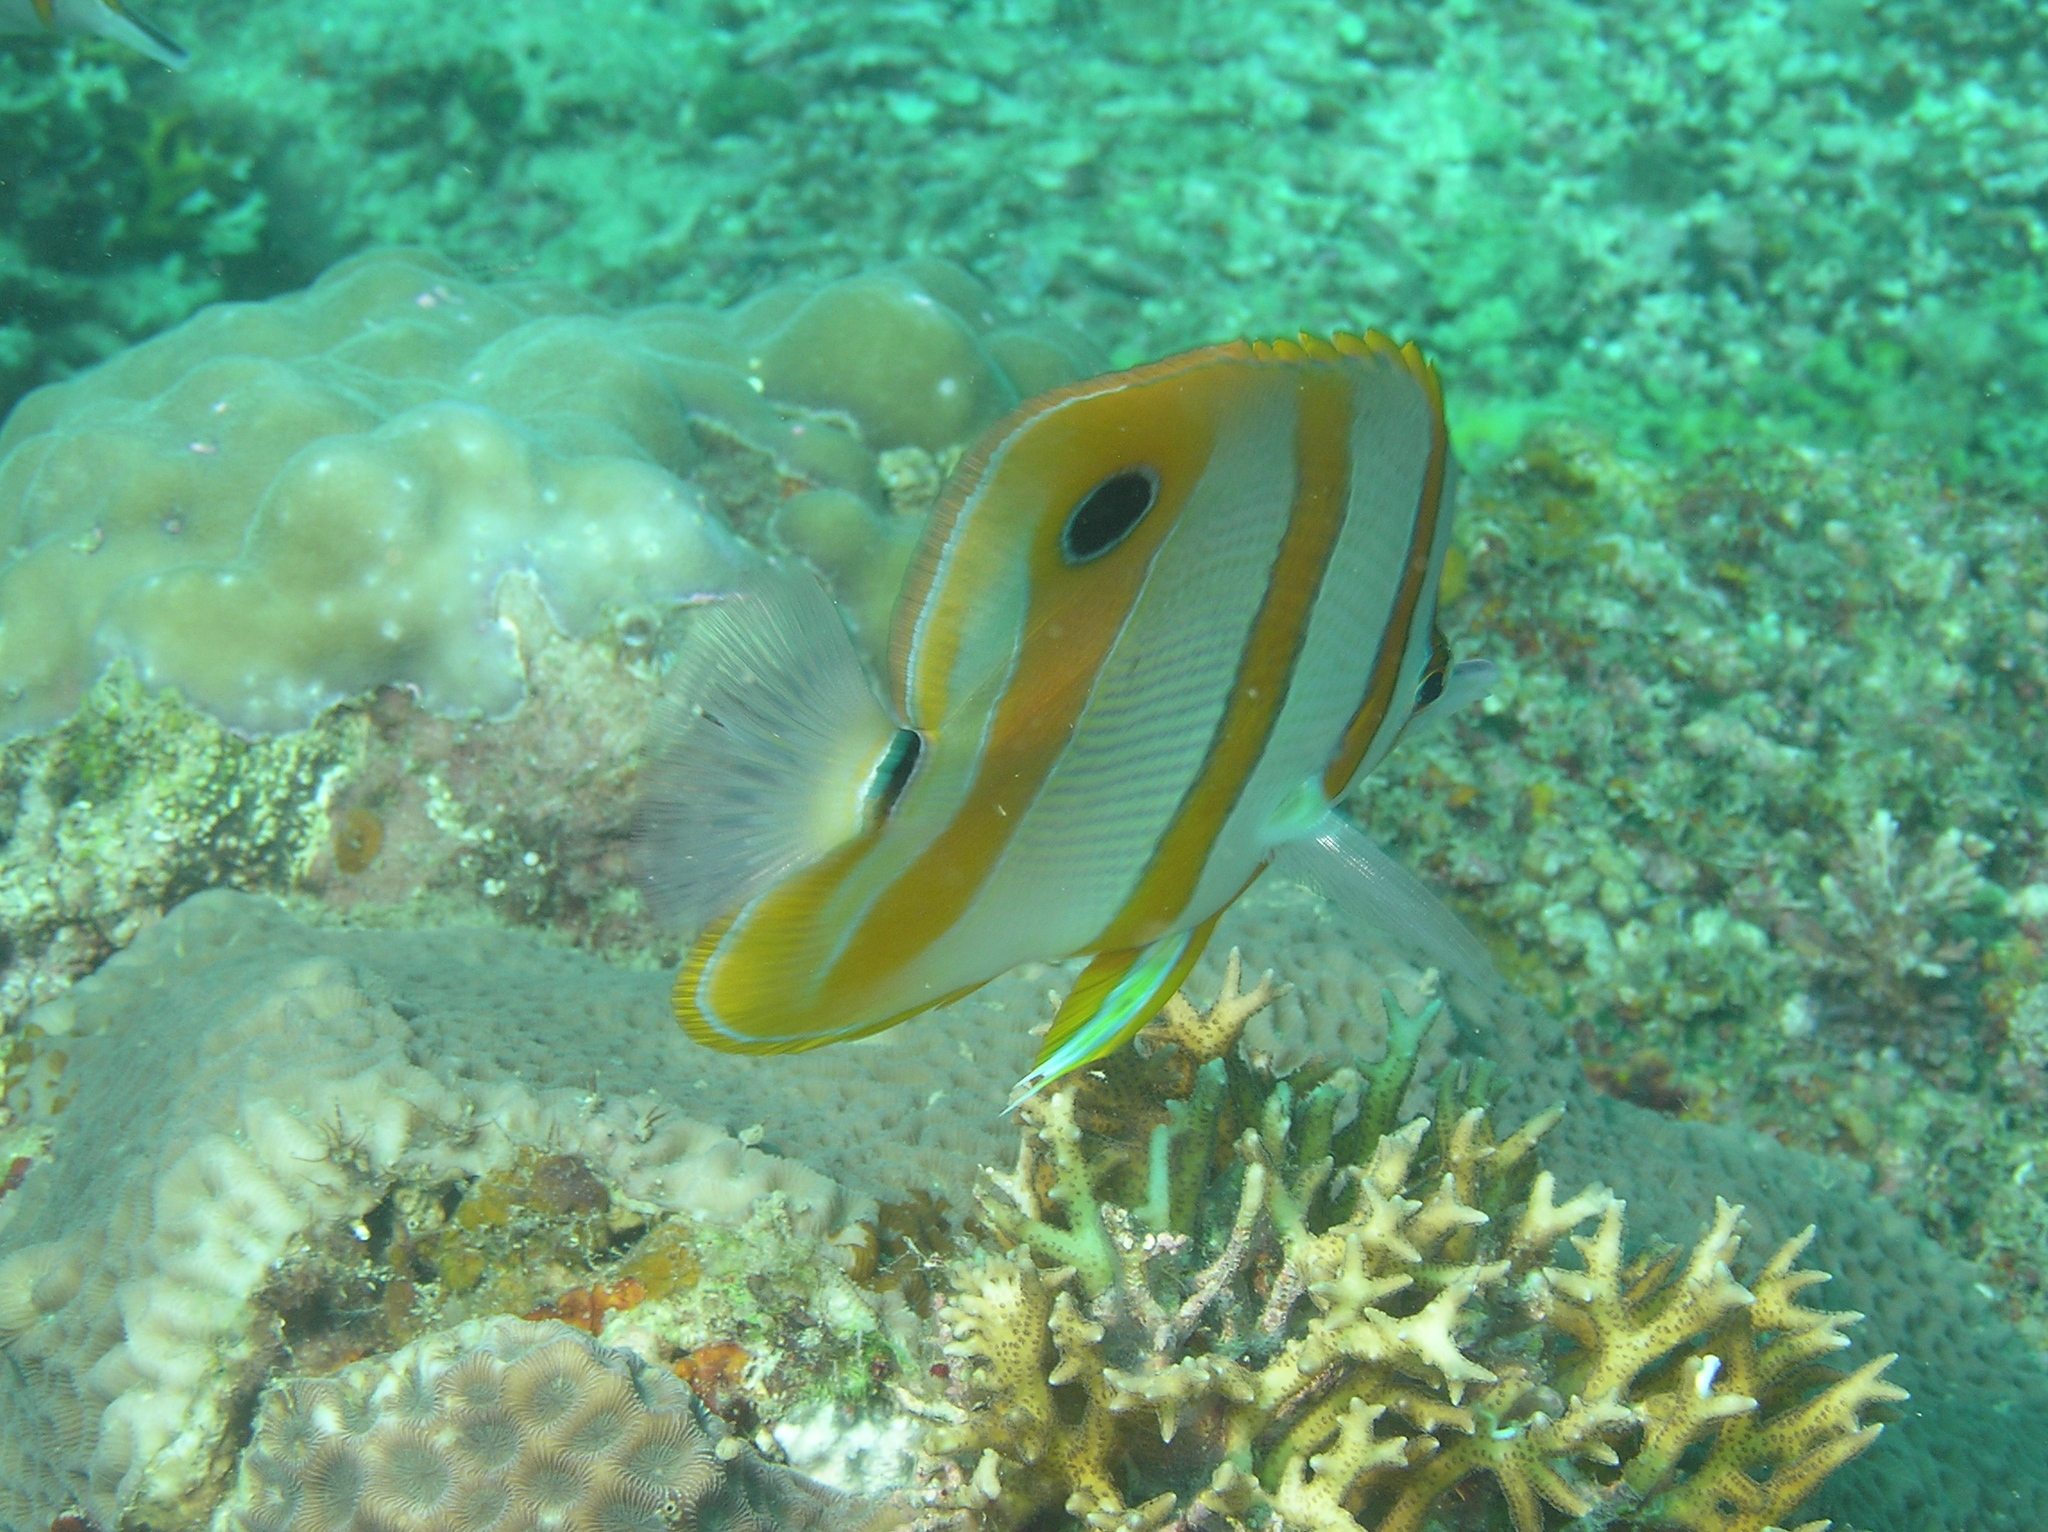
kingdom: Animalia
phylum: Chordata
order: Perciformes
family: Chaetodontidae
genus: Chelmon
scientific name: Chelmon rostratus
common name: Beaked butterflyfish
